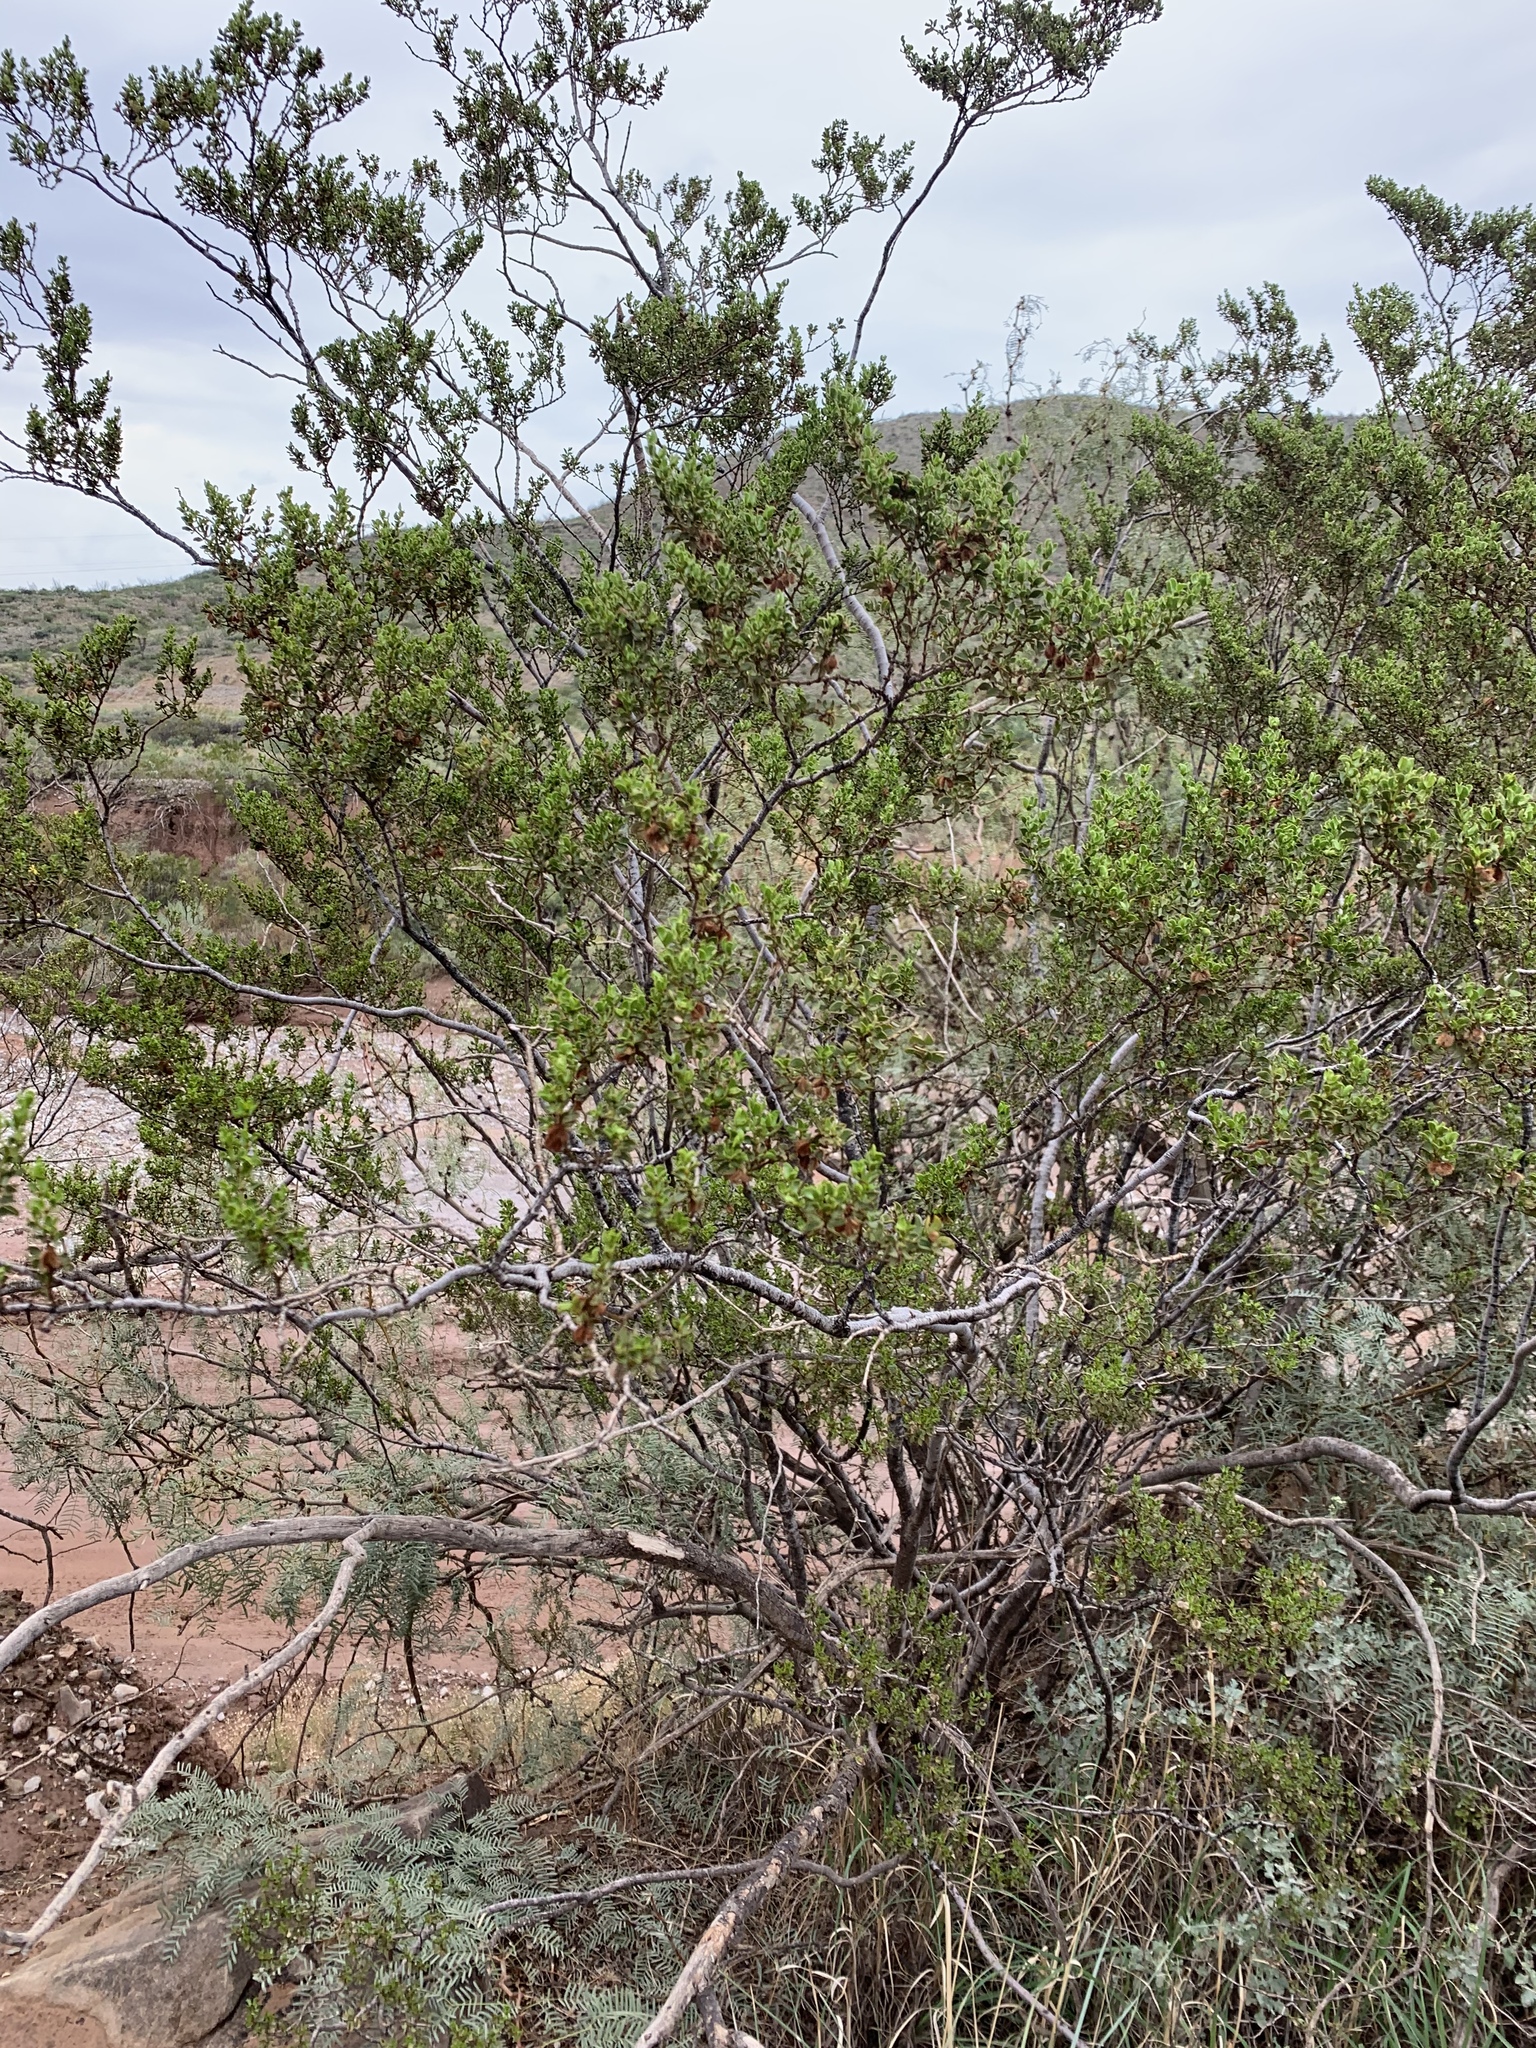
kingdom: Plantae
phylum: Tracheophyta
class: Magnoliopsida
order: Zygophyllales
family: Zygophyllaceae
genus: Larrea
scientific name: Larrea tridentata
